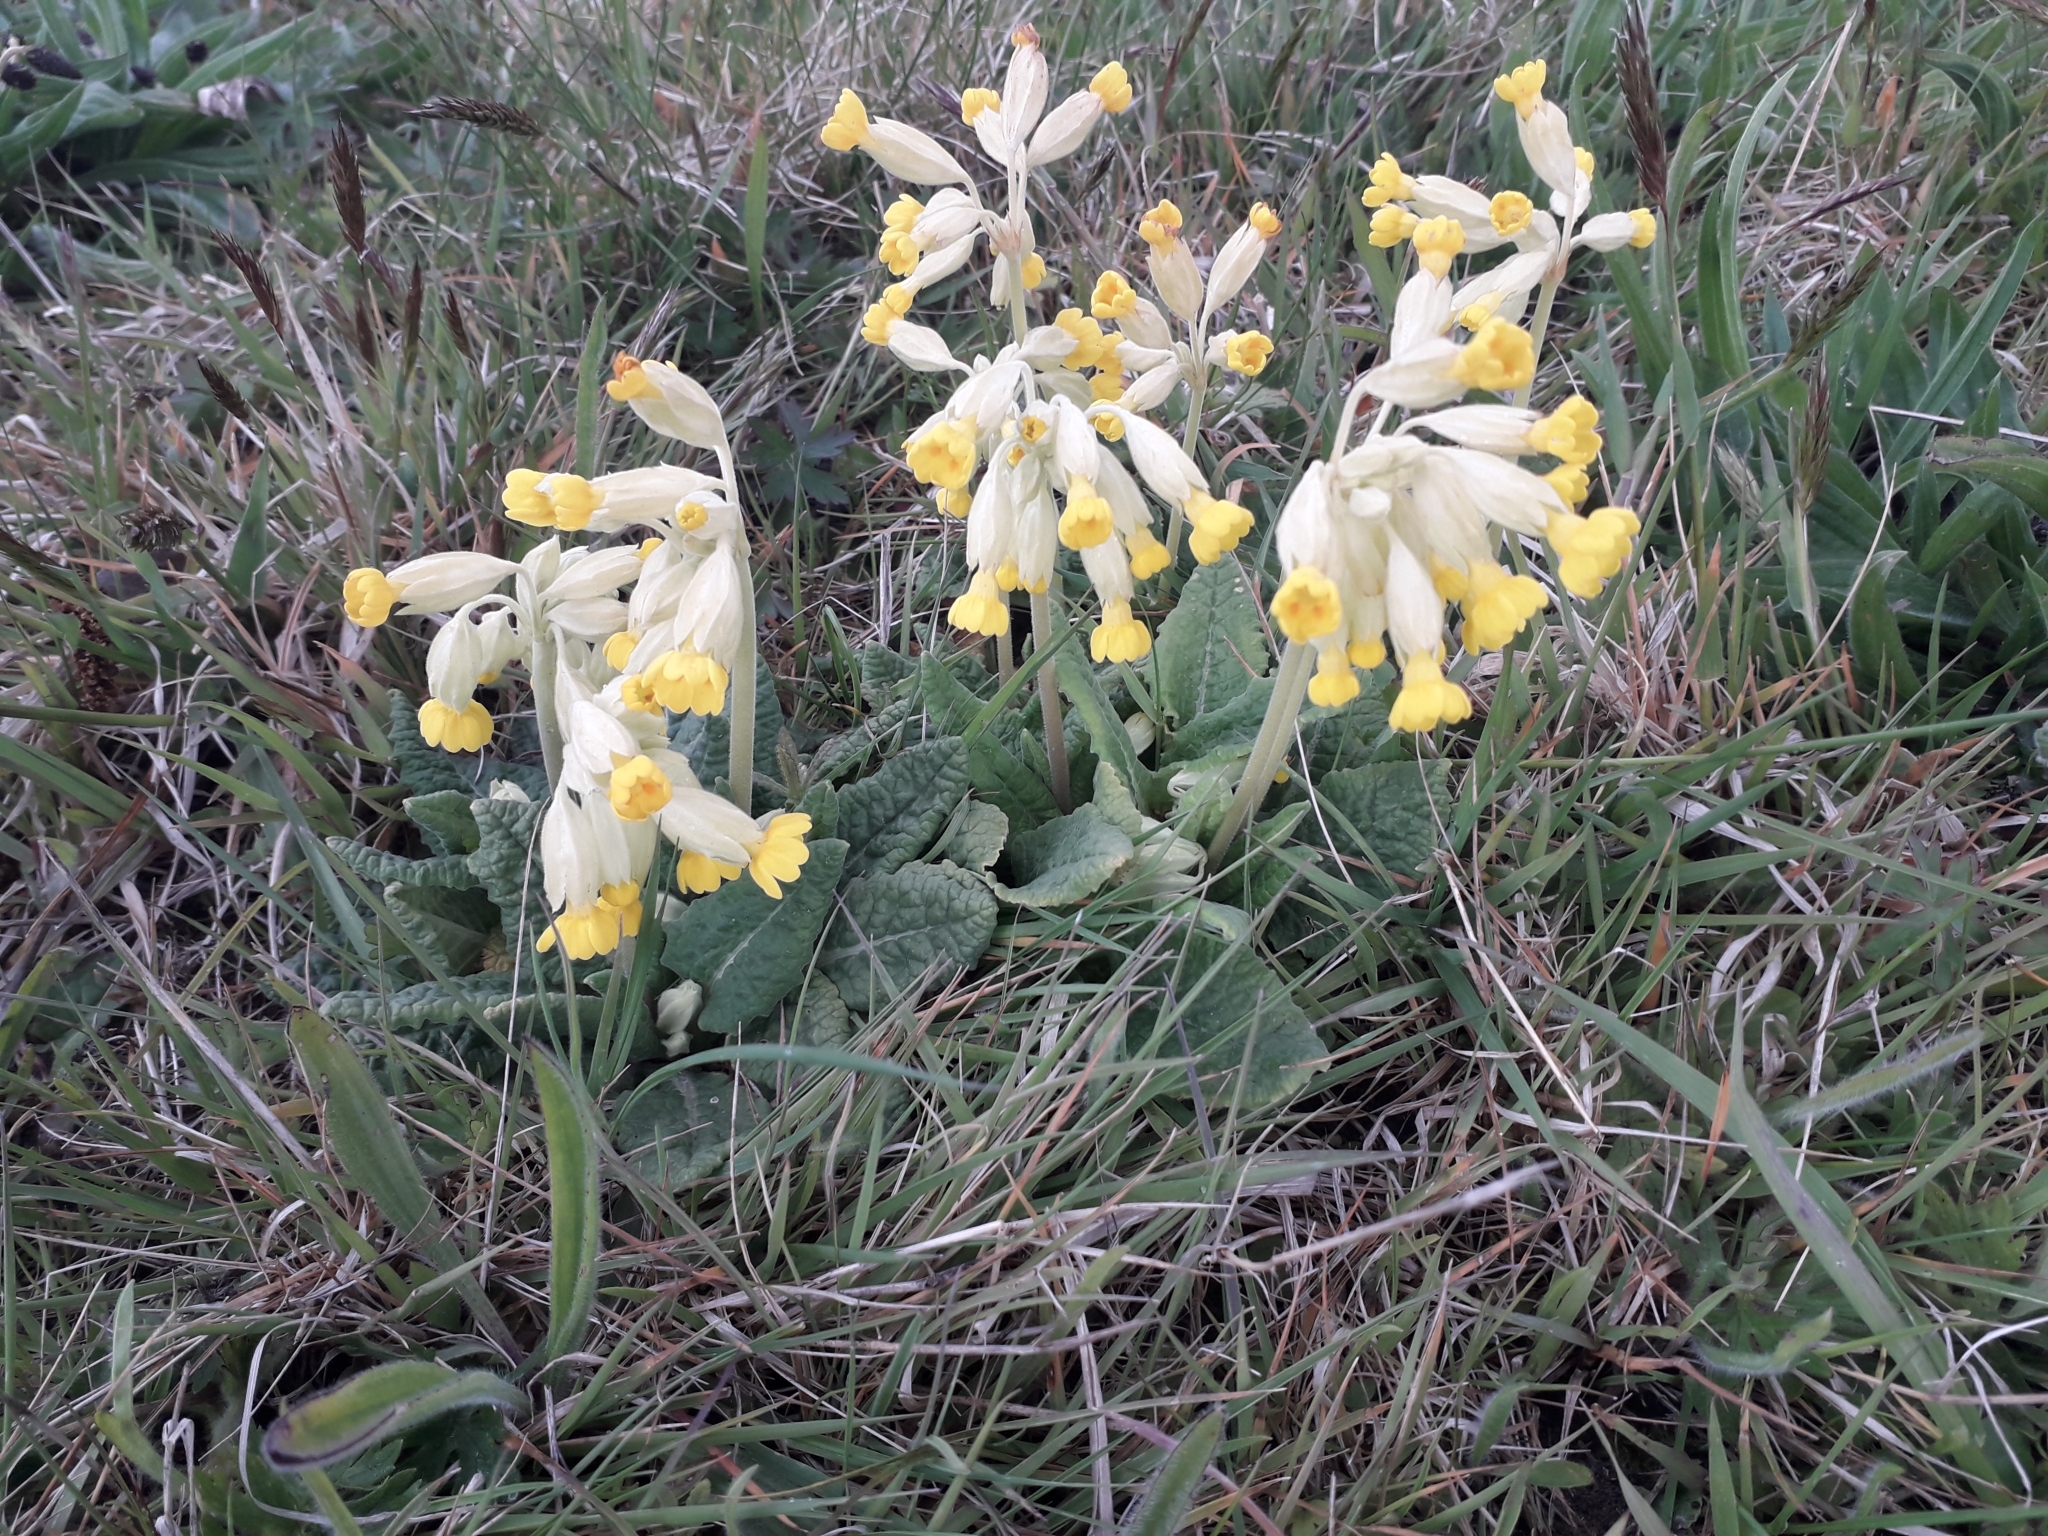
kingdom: Plantae
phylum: Tracheophyta
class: Magnoliopsida
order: Ericales
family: Primulaceae
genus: Primula
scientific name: Primula veris
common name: Cowslip
